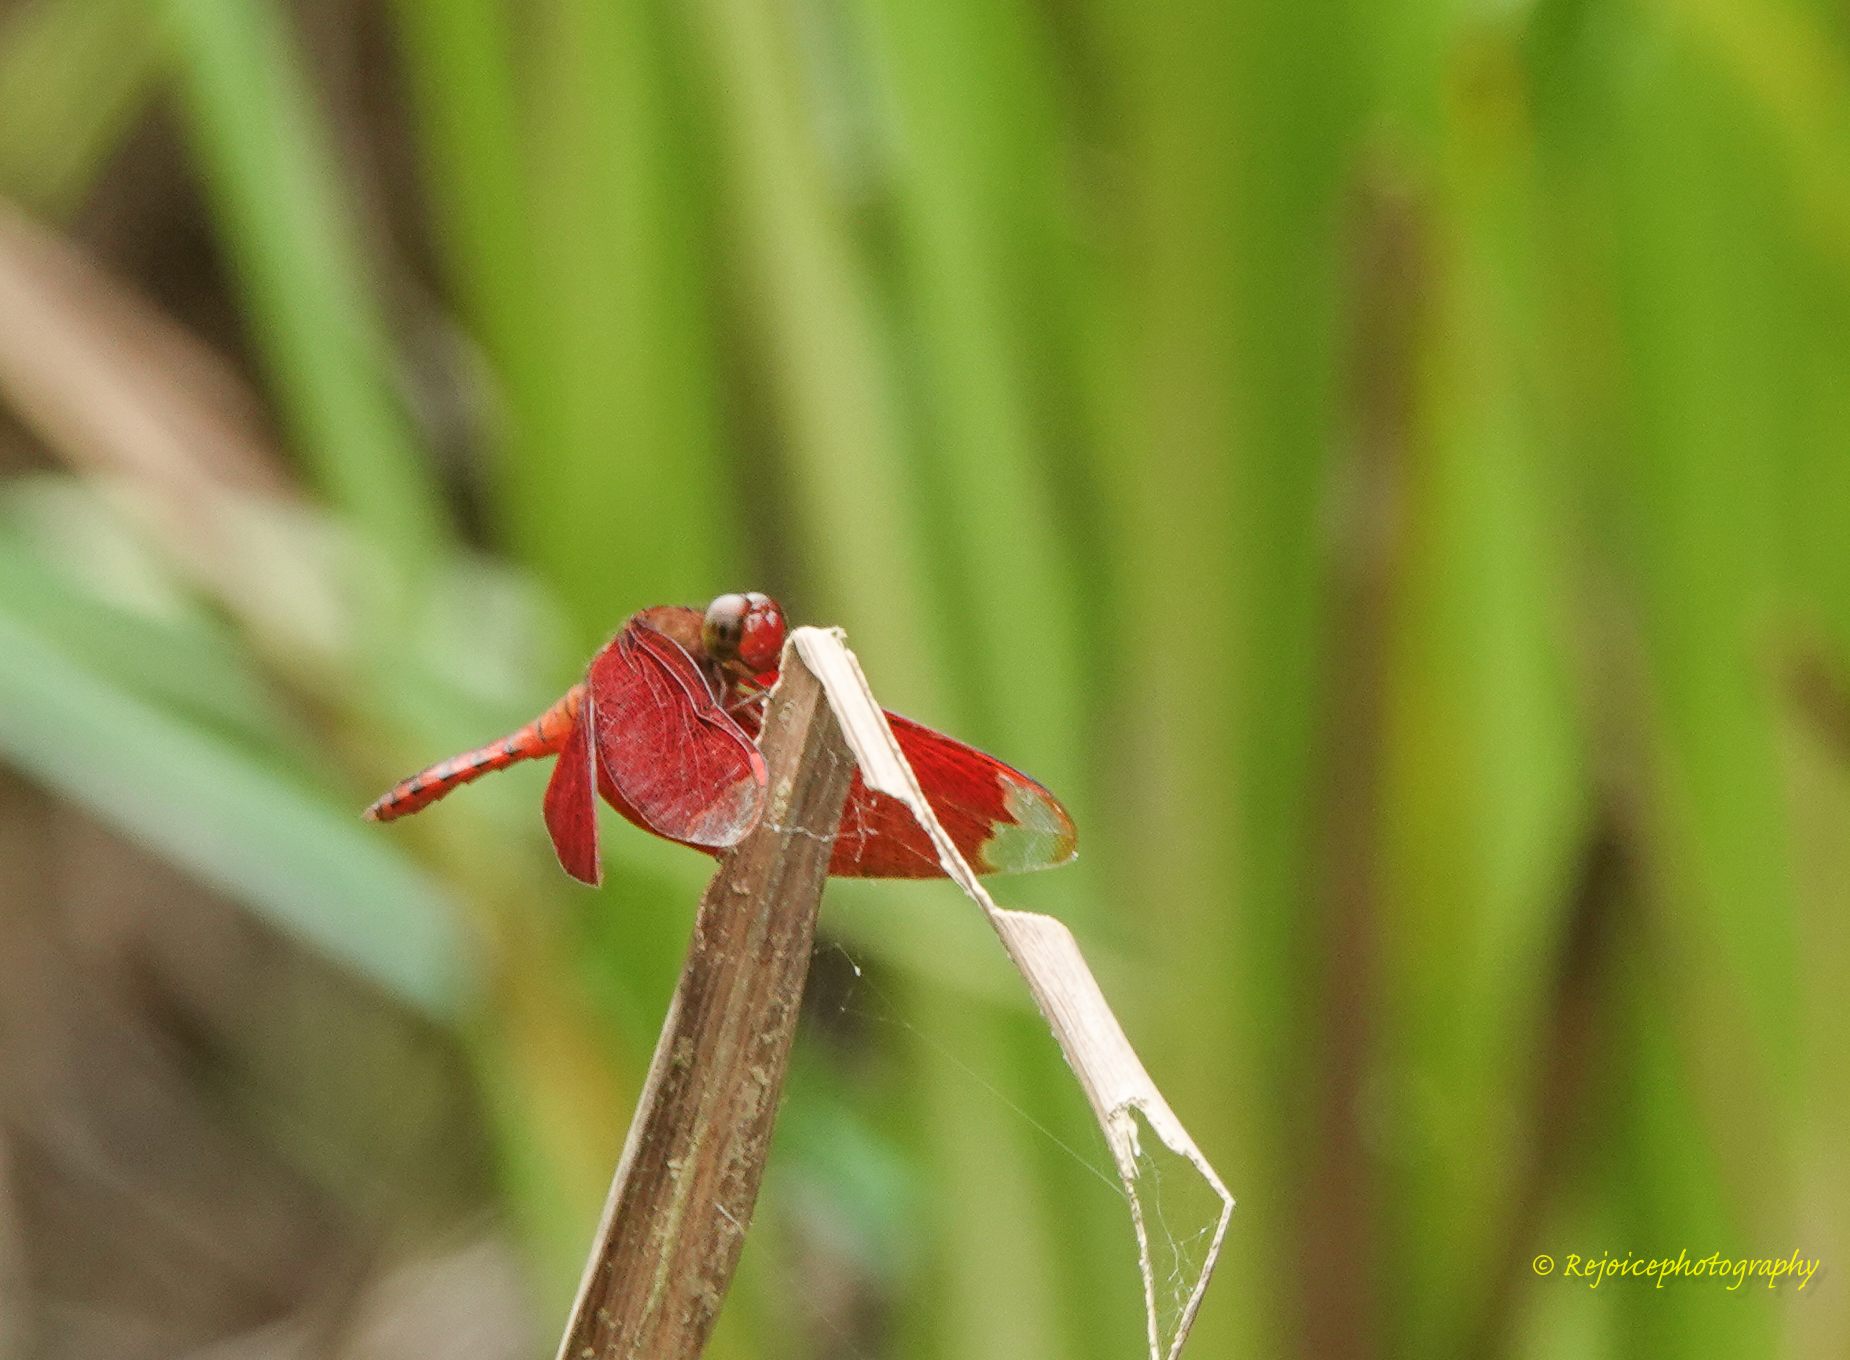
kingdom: Animalia
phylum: Arthropoda
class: Insecta
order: Odonata
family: Libellulidae
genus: Neurothemis
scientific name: Neurothemis fulvia
